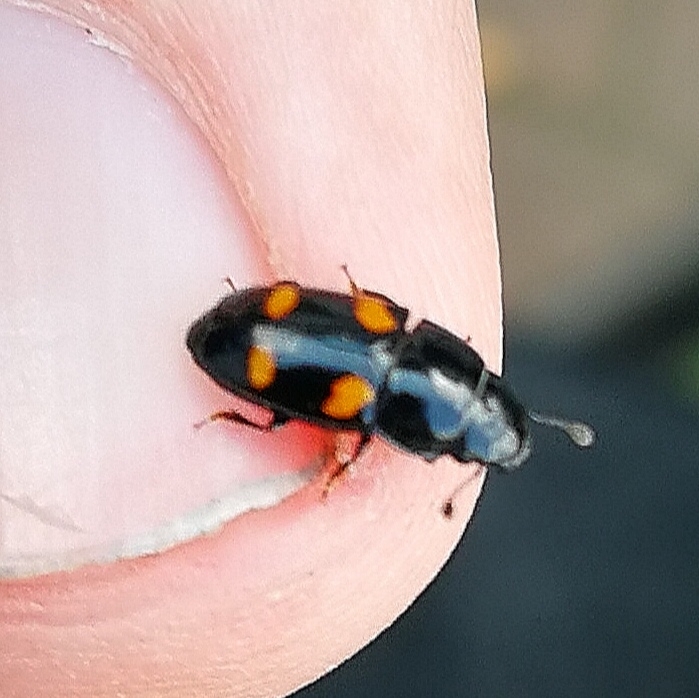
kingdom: Animalia
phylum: Arthropoda
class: Insecta
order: Coleoptera
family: Nitidulidae
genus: Glischrochilus
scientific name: Glischrochilus hortensis
